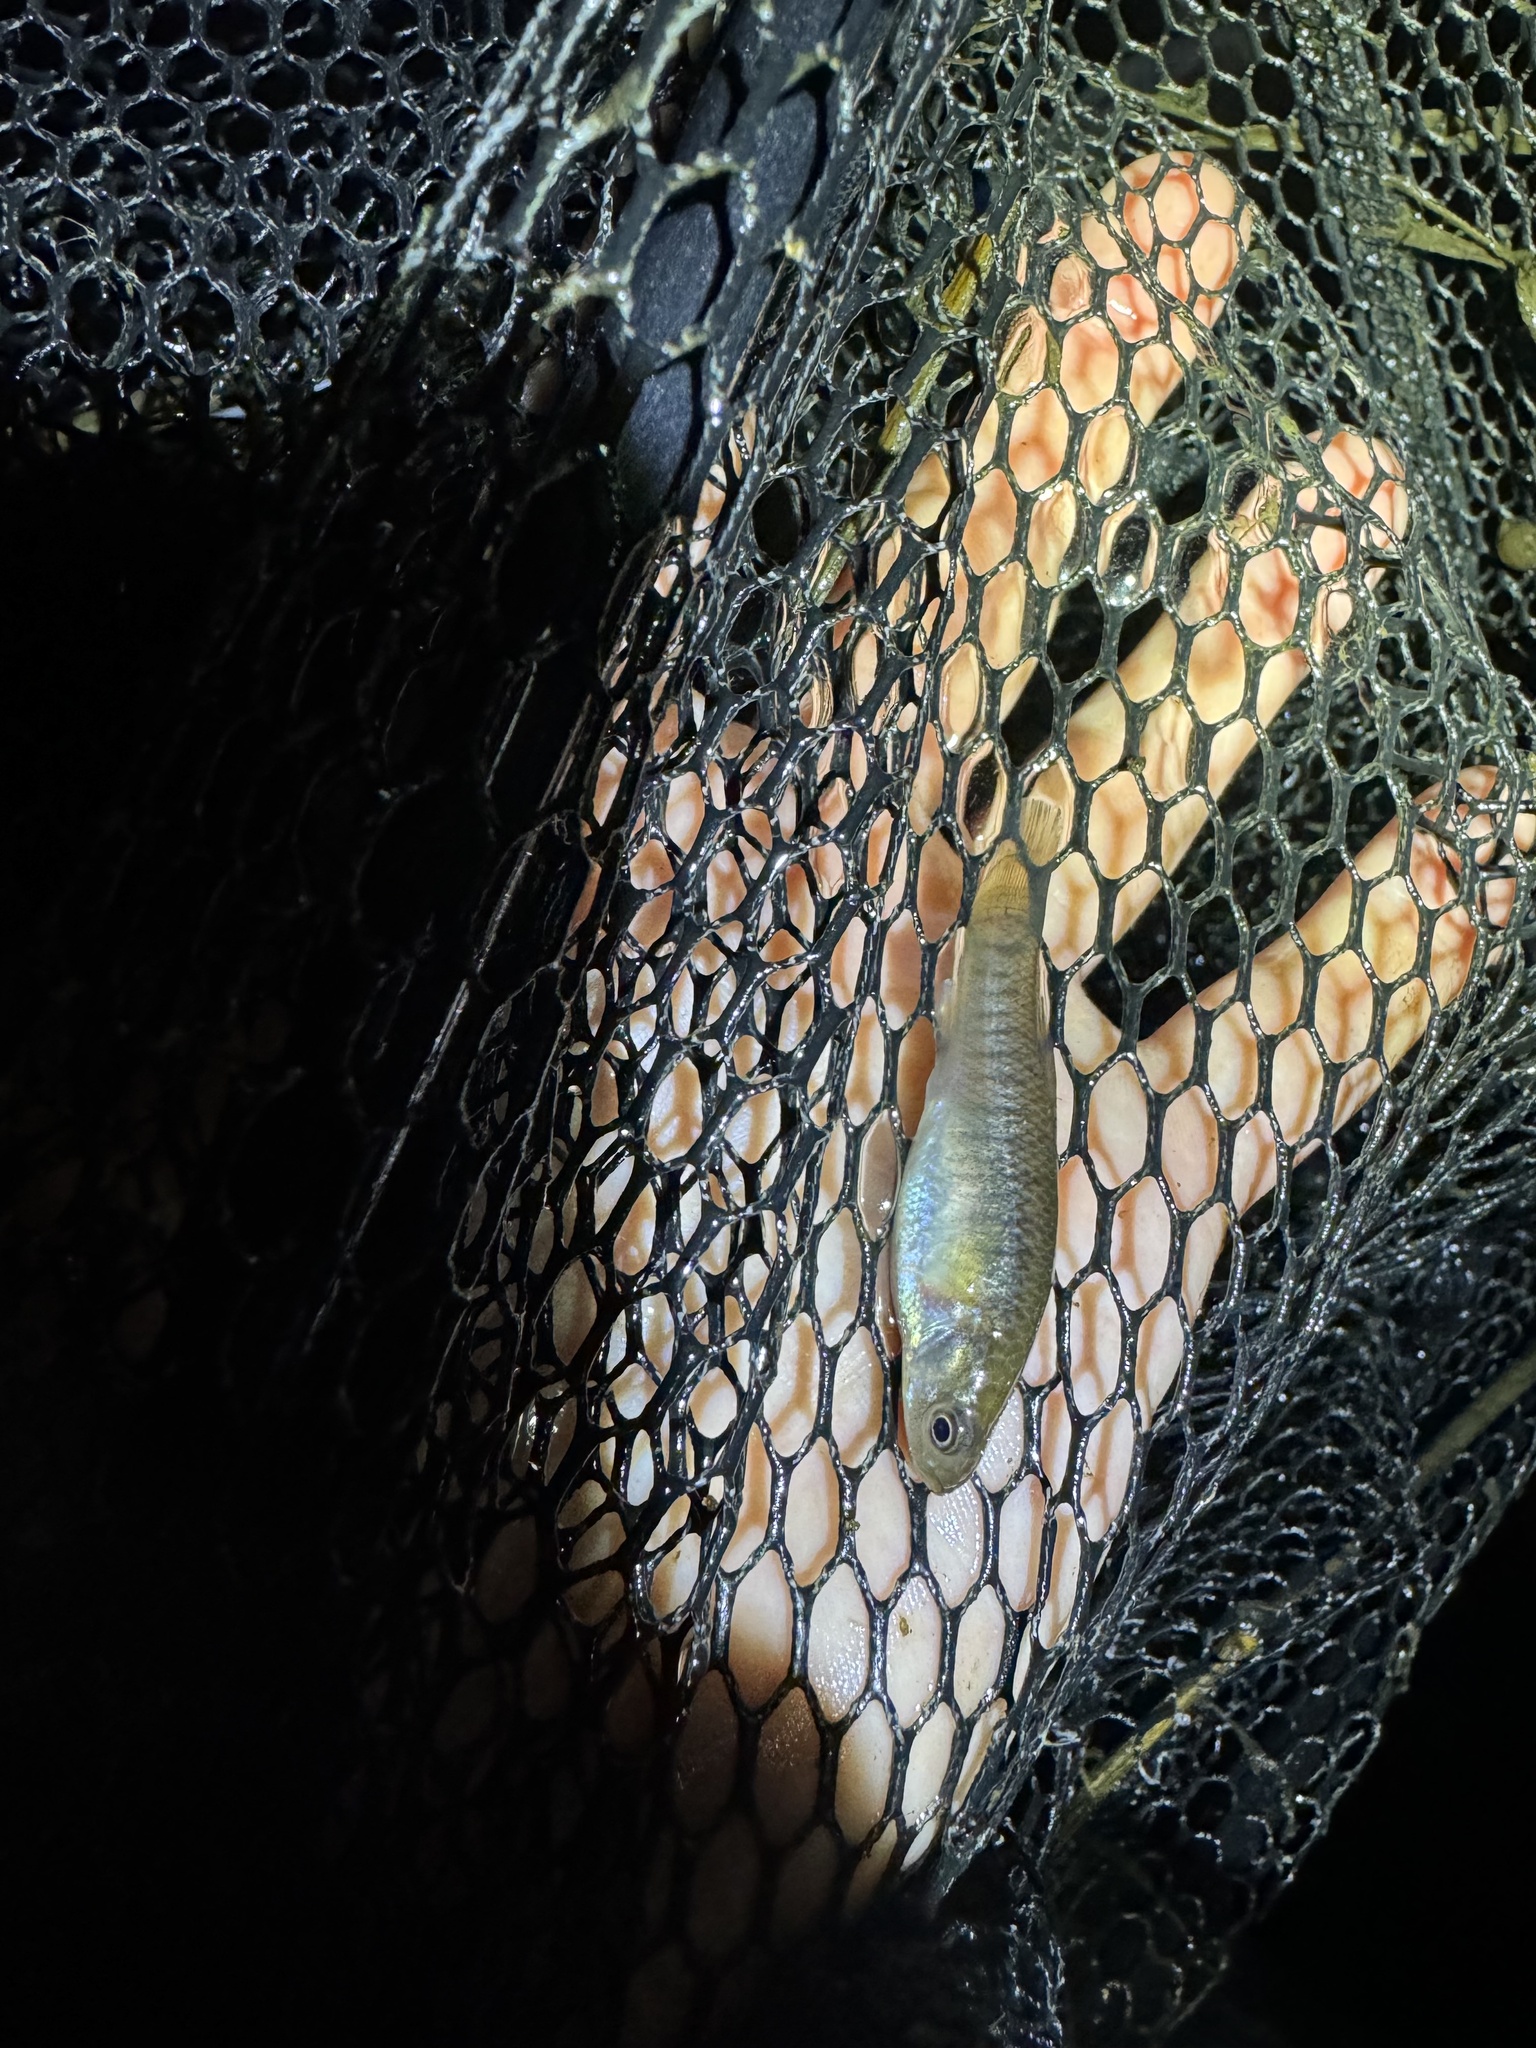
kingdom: Animalia
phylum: Chordata
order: Cyprinodontiformes
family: Fundulidae
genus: Fundulus
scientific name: Fundulus heteroclitus
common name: Mummichog
